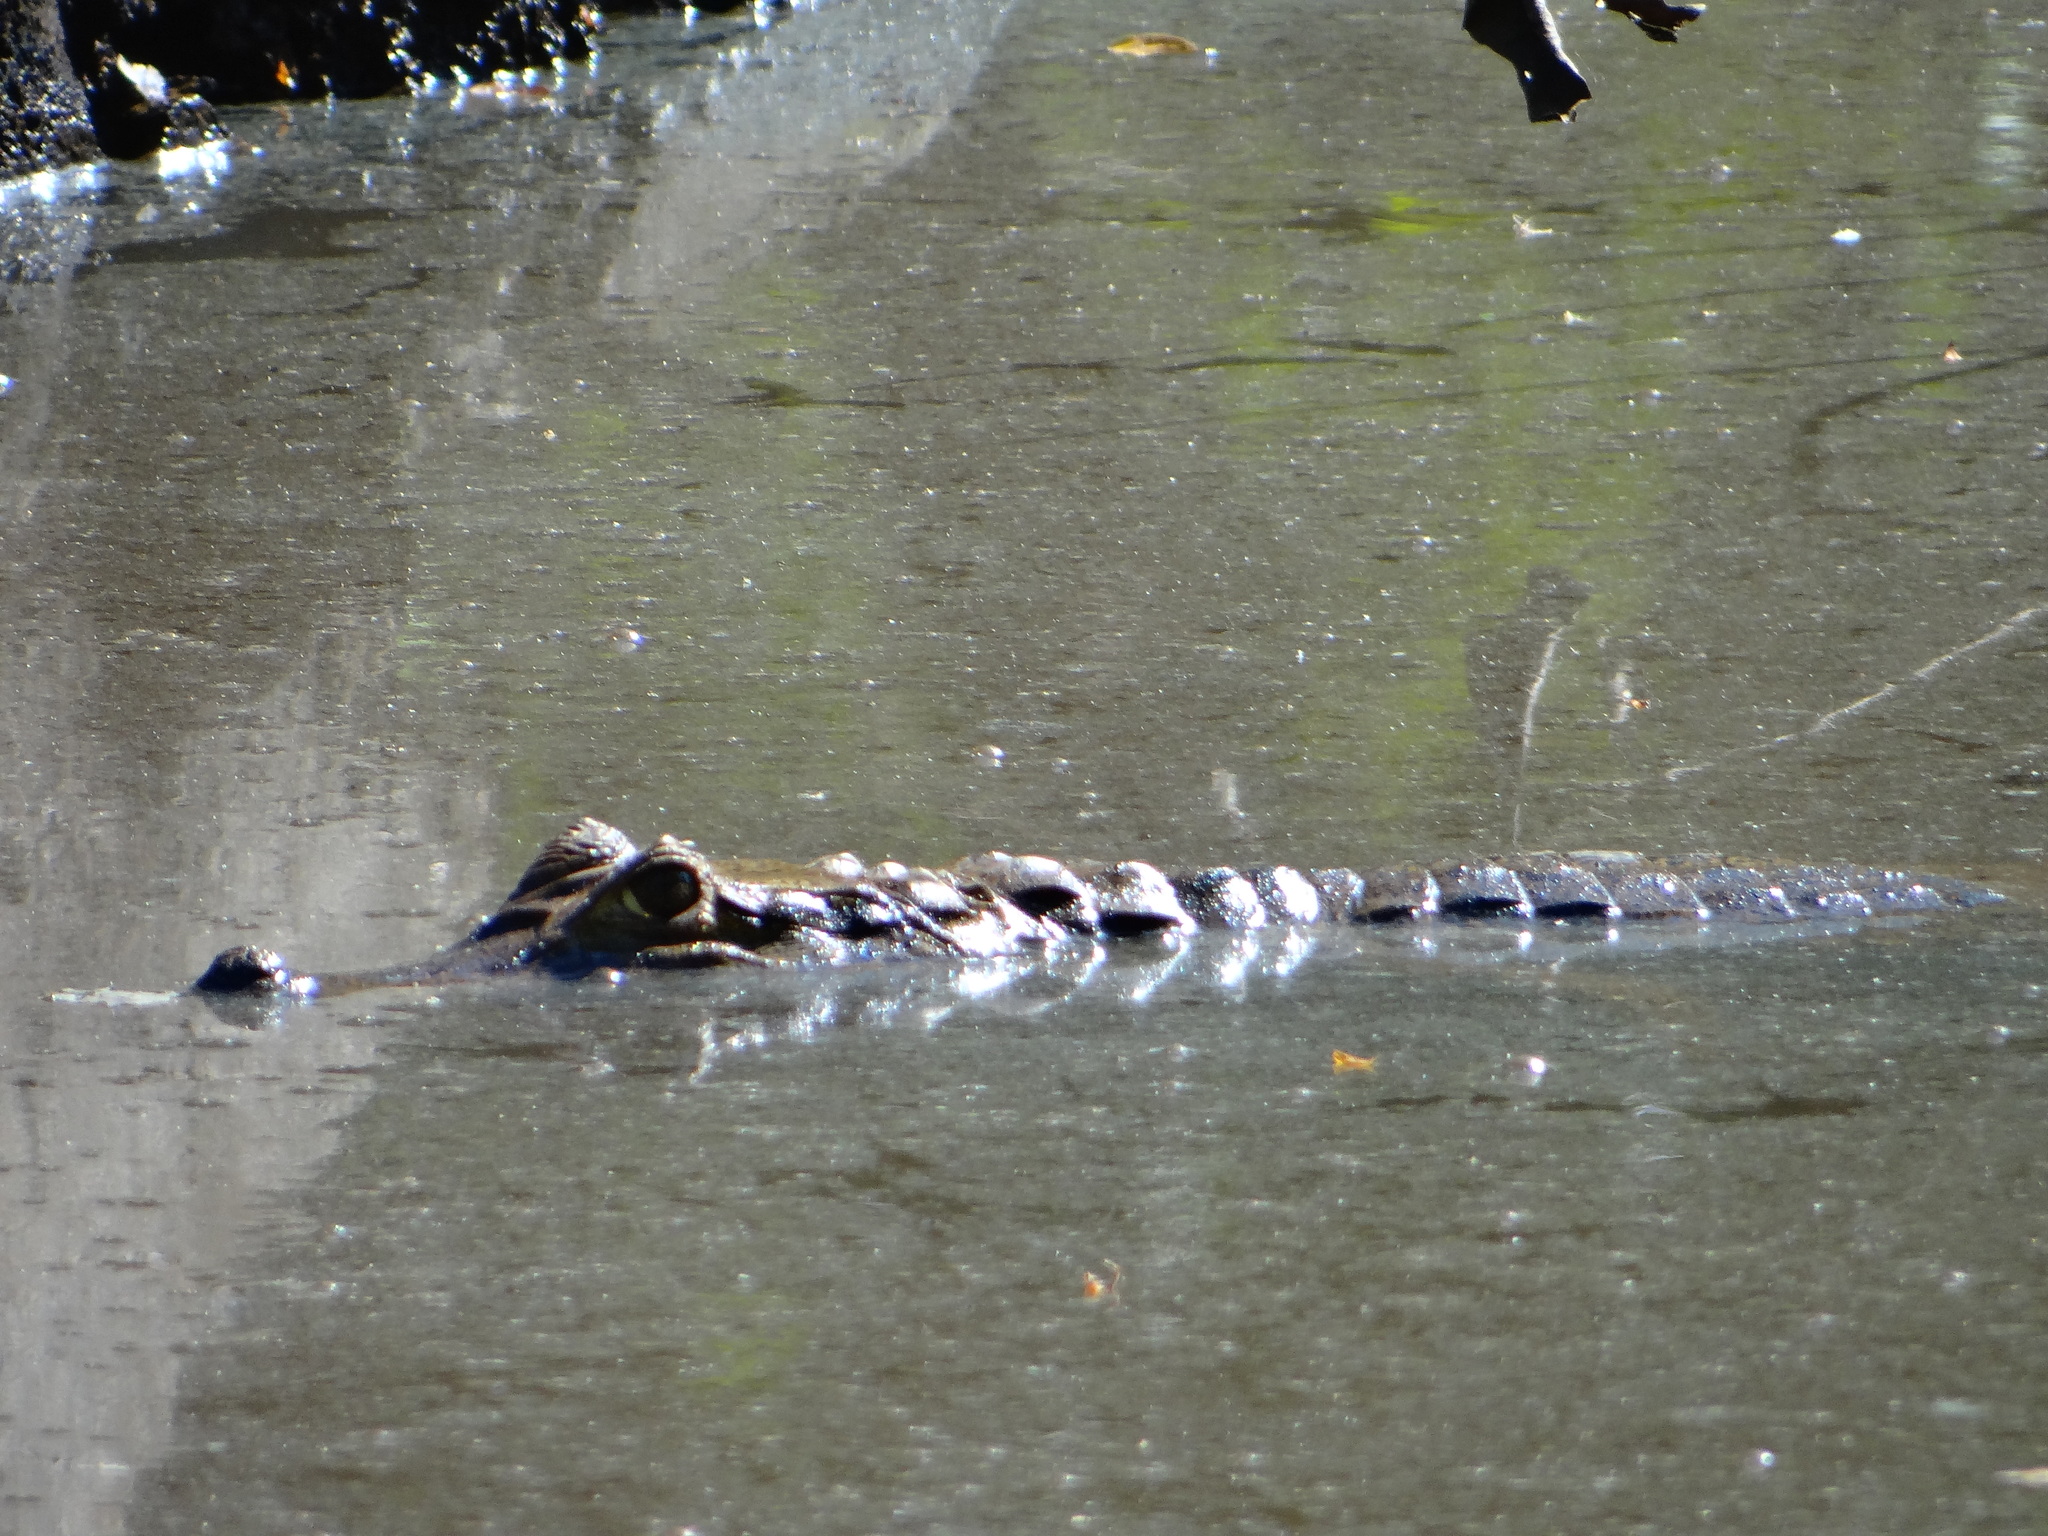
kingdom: Animalia
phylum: Chordata
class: Crocodylia
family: Alligatoridae
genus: Caiman
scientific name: Caiman yacare
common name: Yacare caiman
